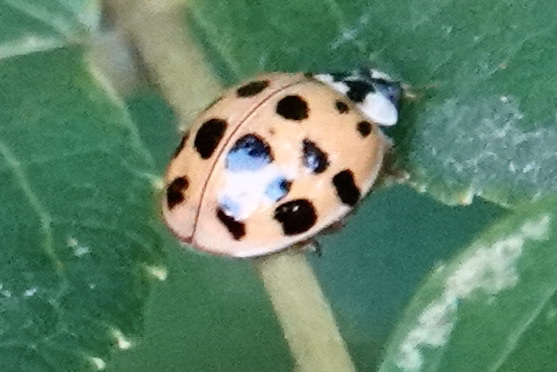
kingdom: Animalia
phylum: Arthropoda
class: Insecta
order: Coleoptera
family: Coccinellidae
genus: Harmonia
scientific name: Harmonia axyridis
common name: Harlequin ladybird
